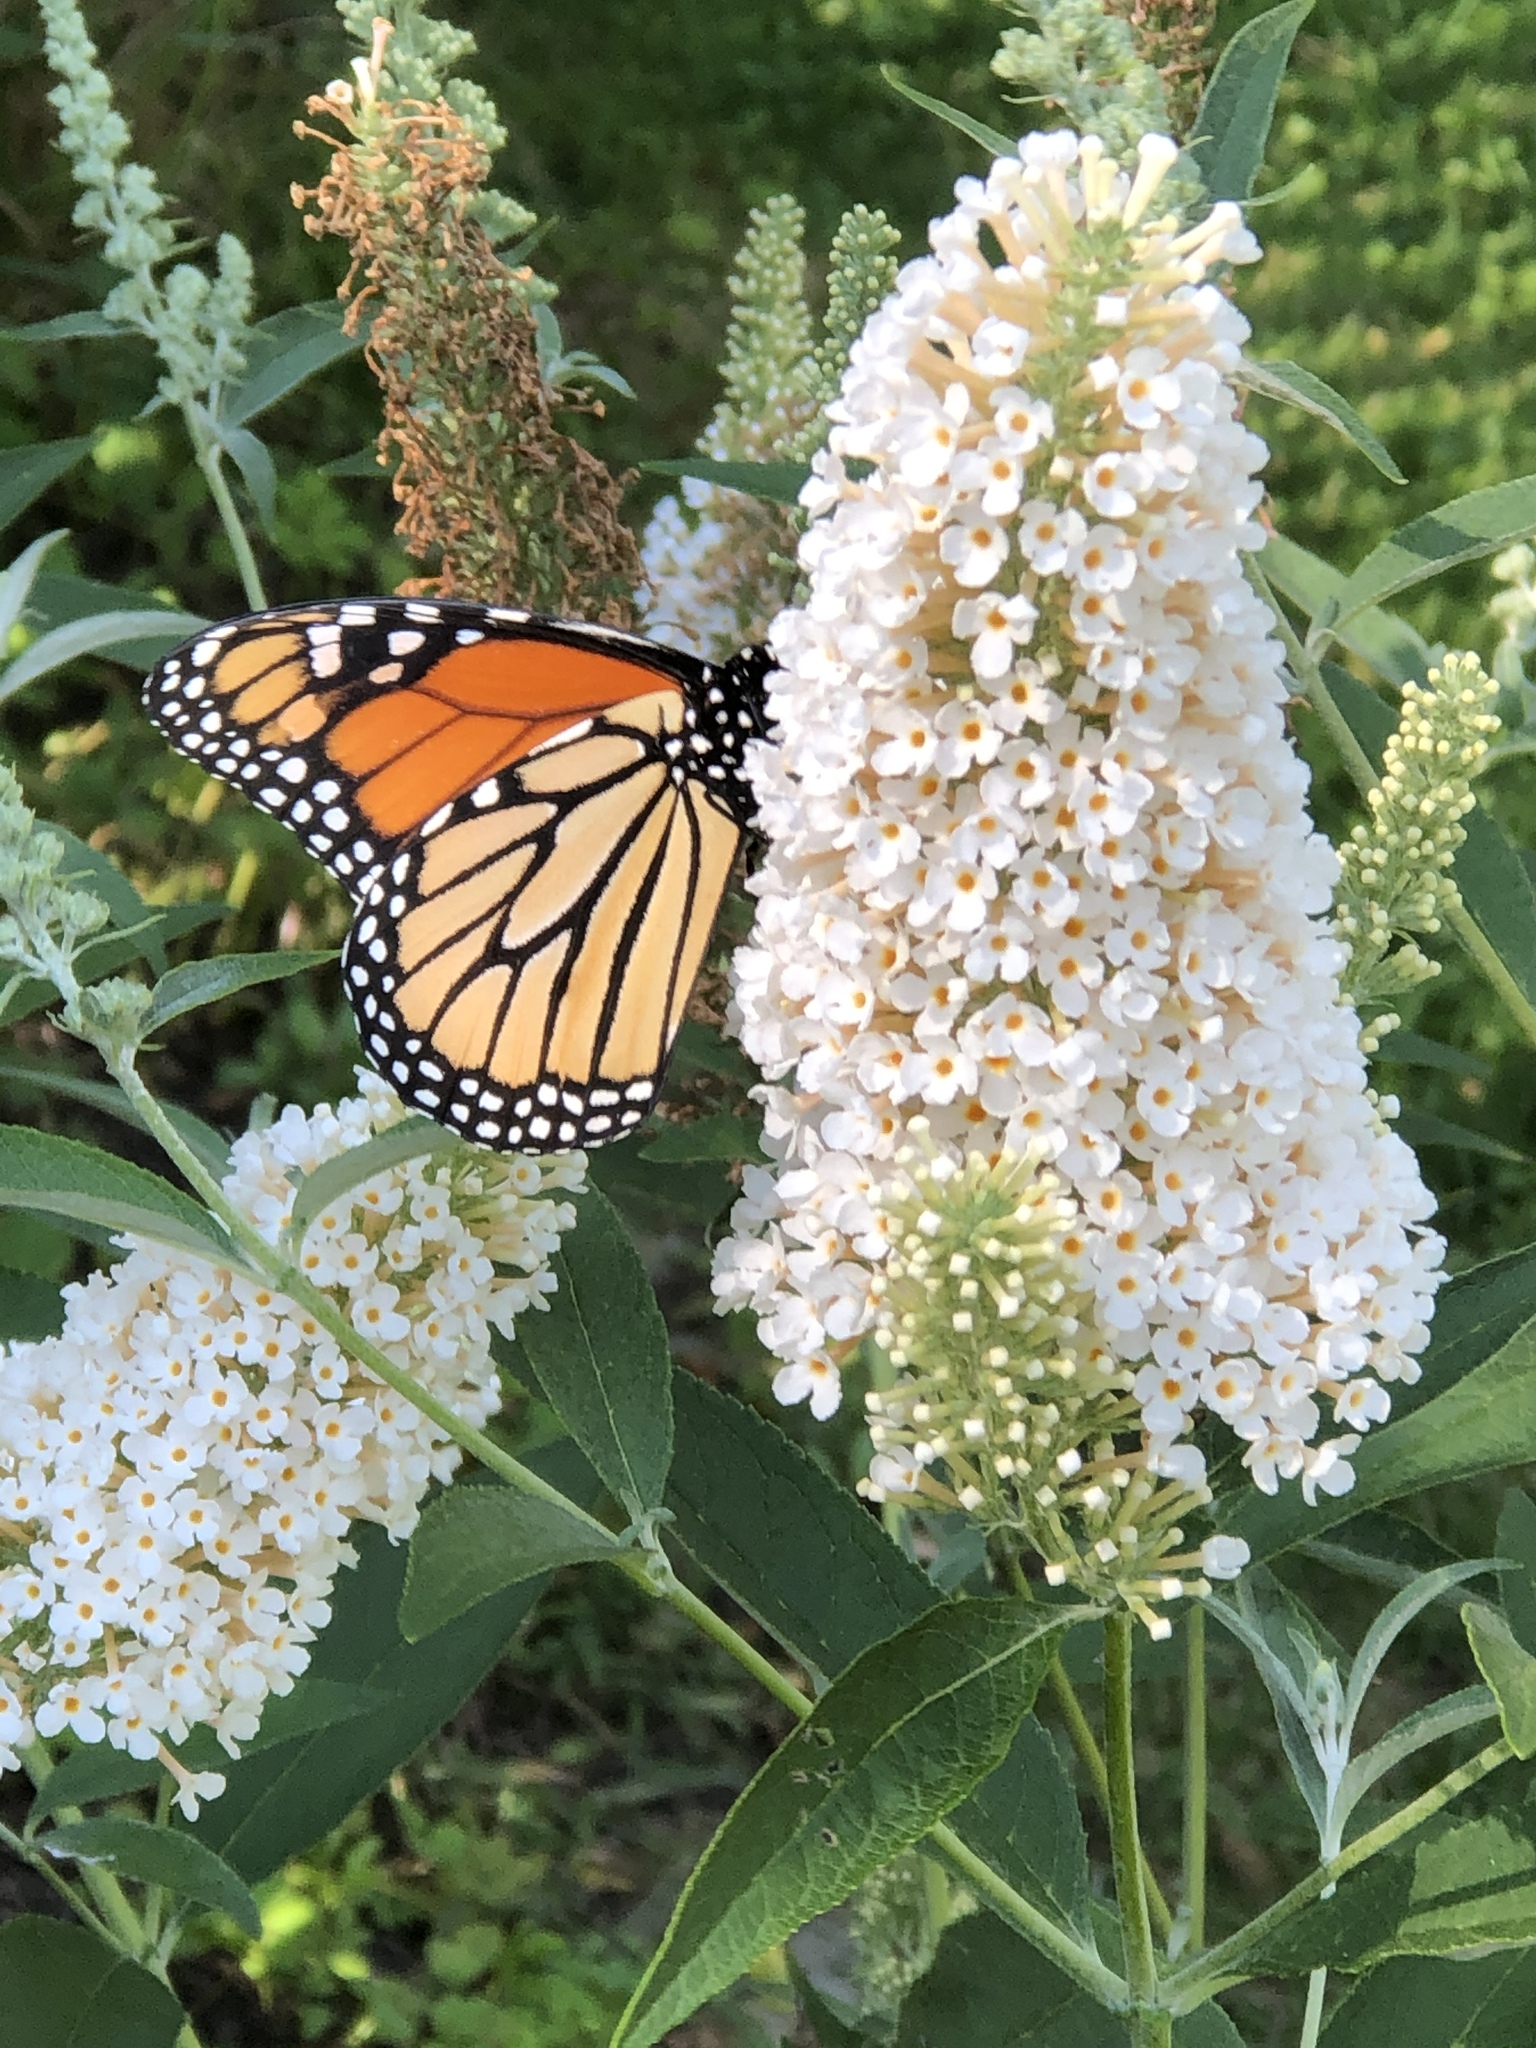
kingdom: Animalia
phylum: Arthropoda
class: Insecta
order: Lepidoptera
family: Nymphalidae
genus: Danaus
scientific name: Danaus plexippus
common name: Monarch
